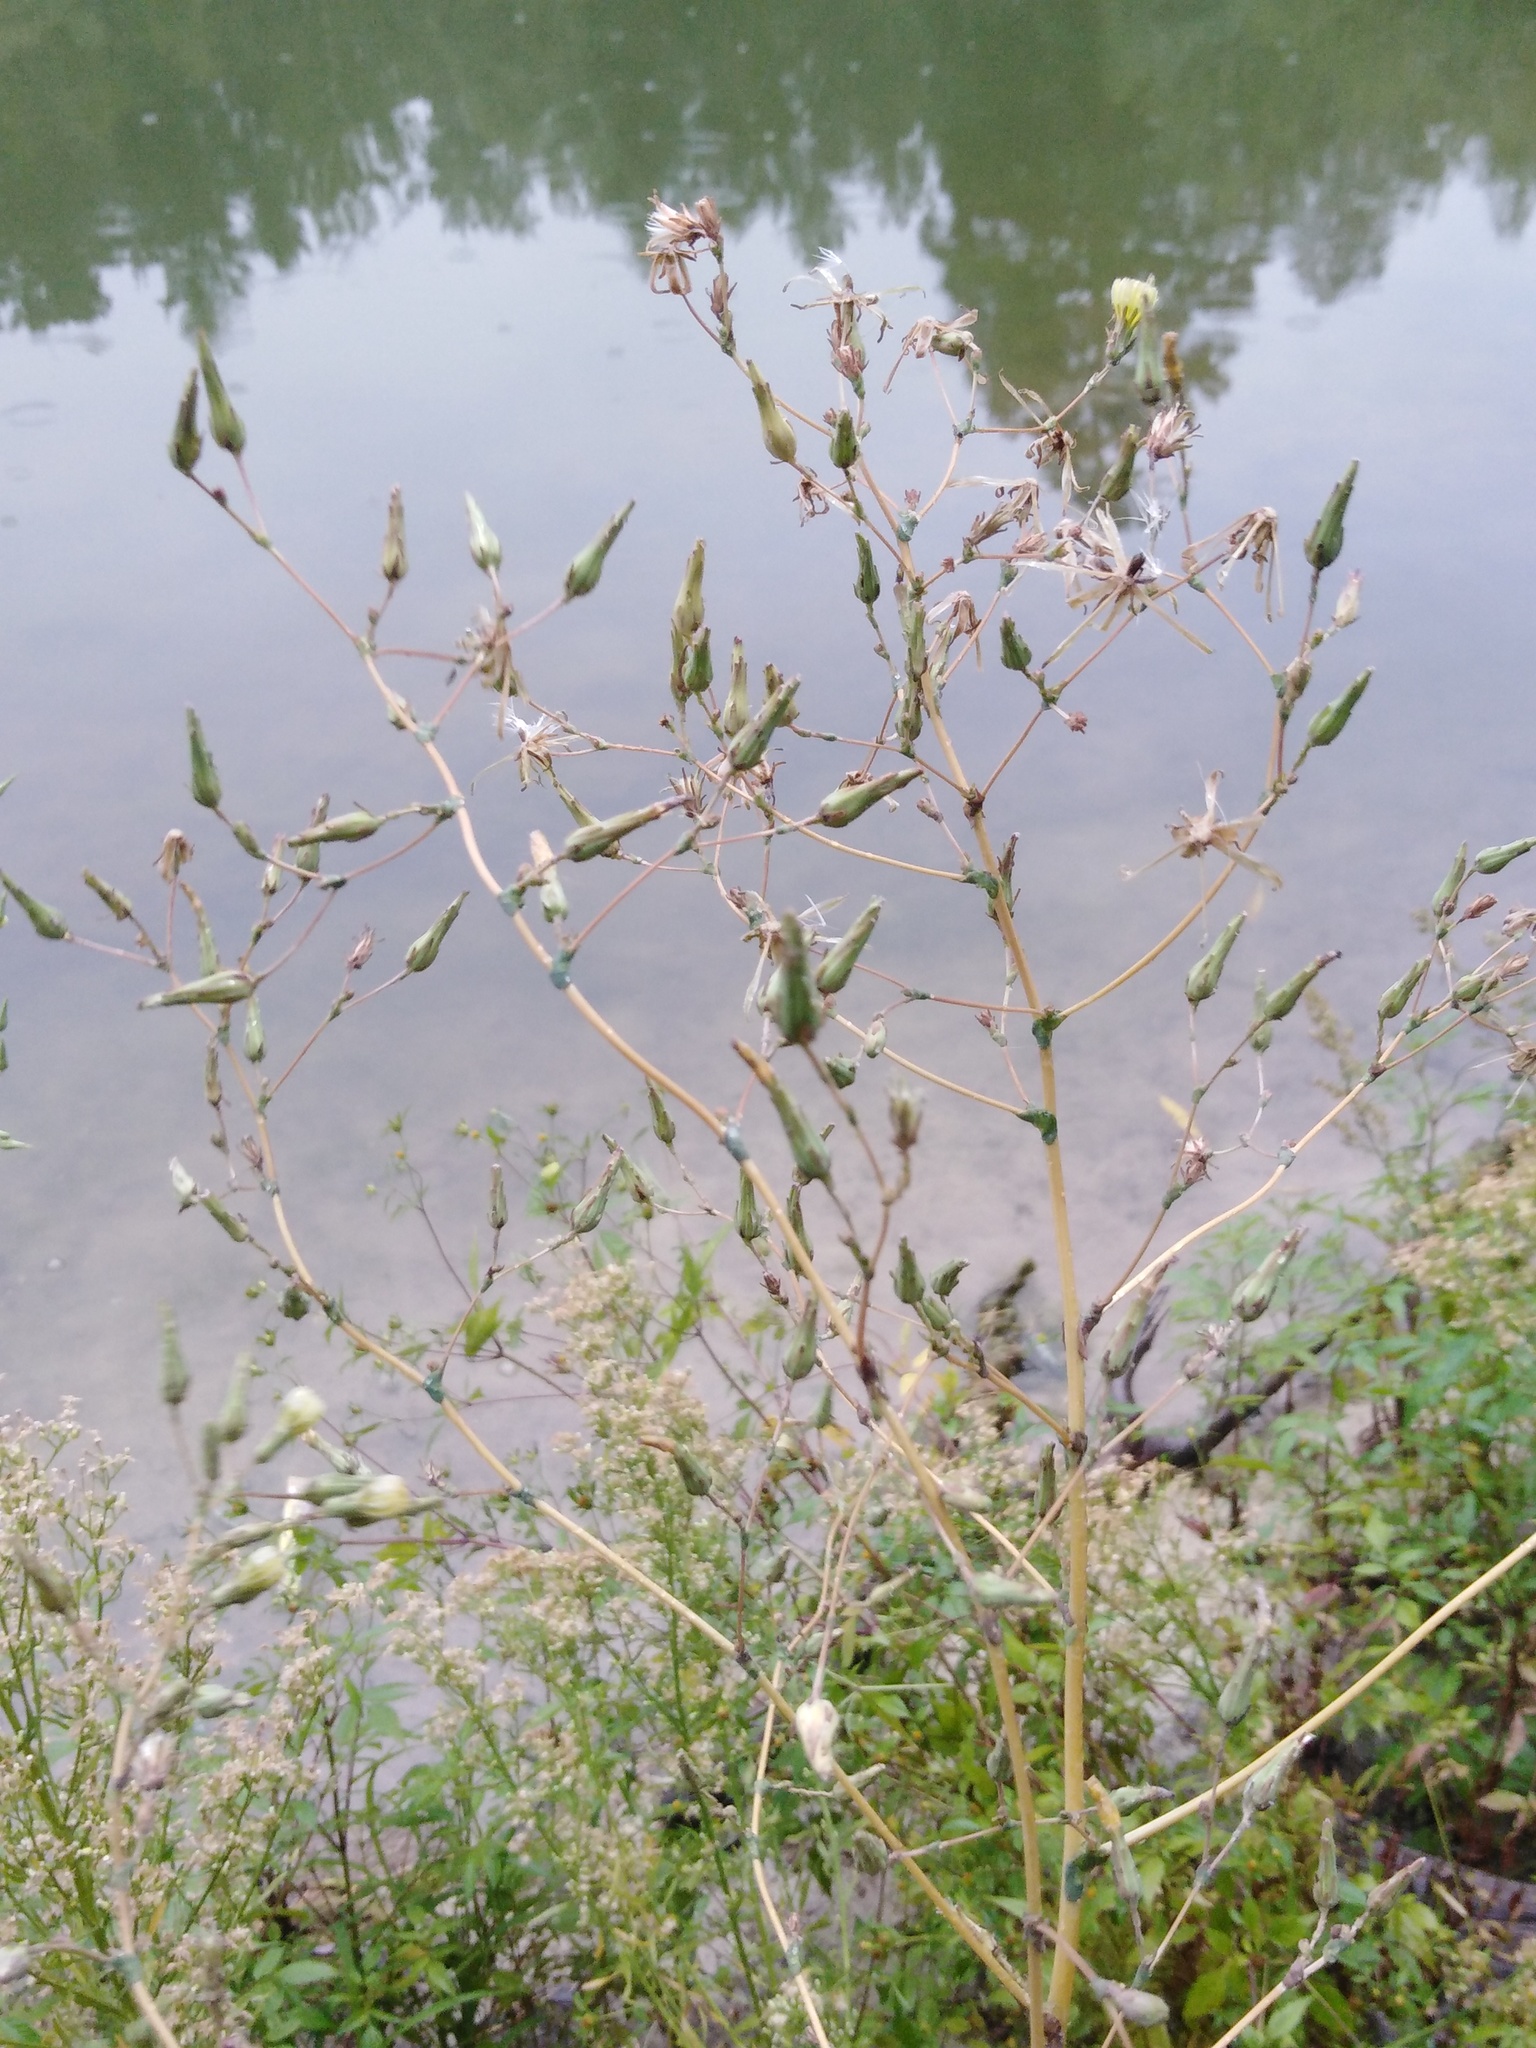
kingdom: Plantae
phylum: Tracheophyta
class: Magnoliopsida
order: Asterales
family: Asteraceae
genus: Lactuca
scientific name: Lactuca serriola
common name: Prickly lettuce
